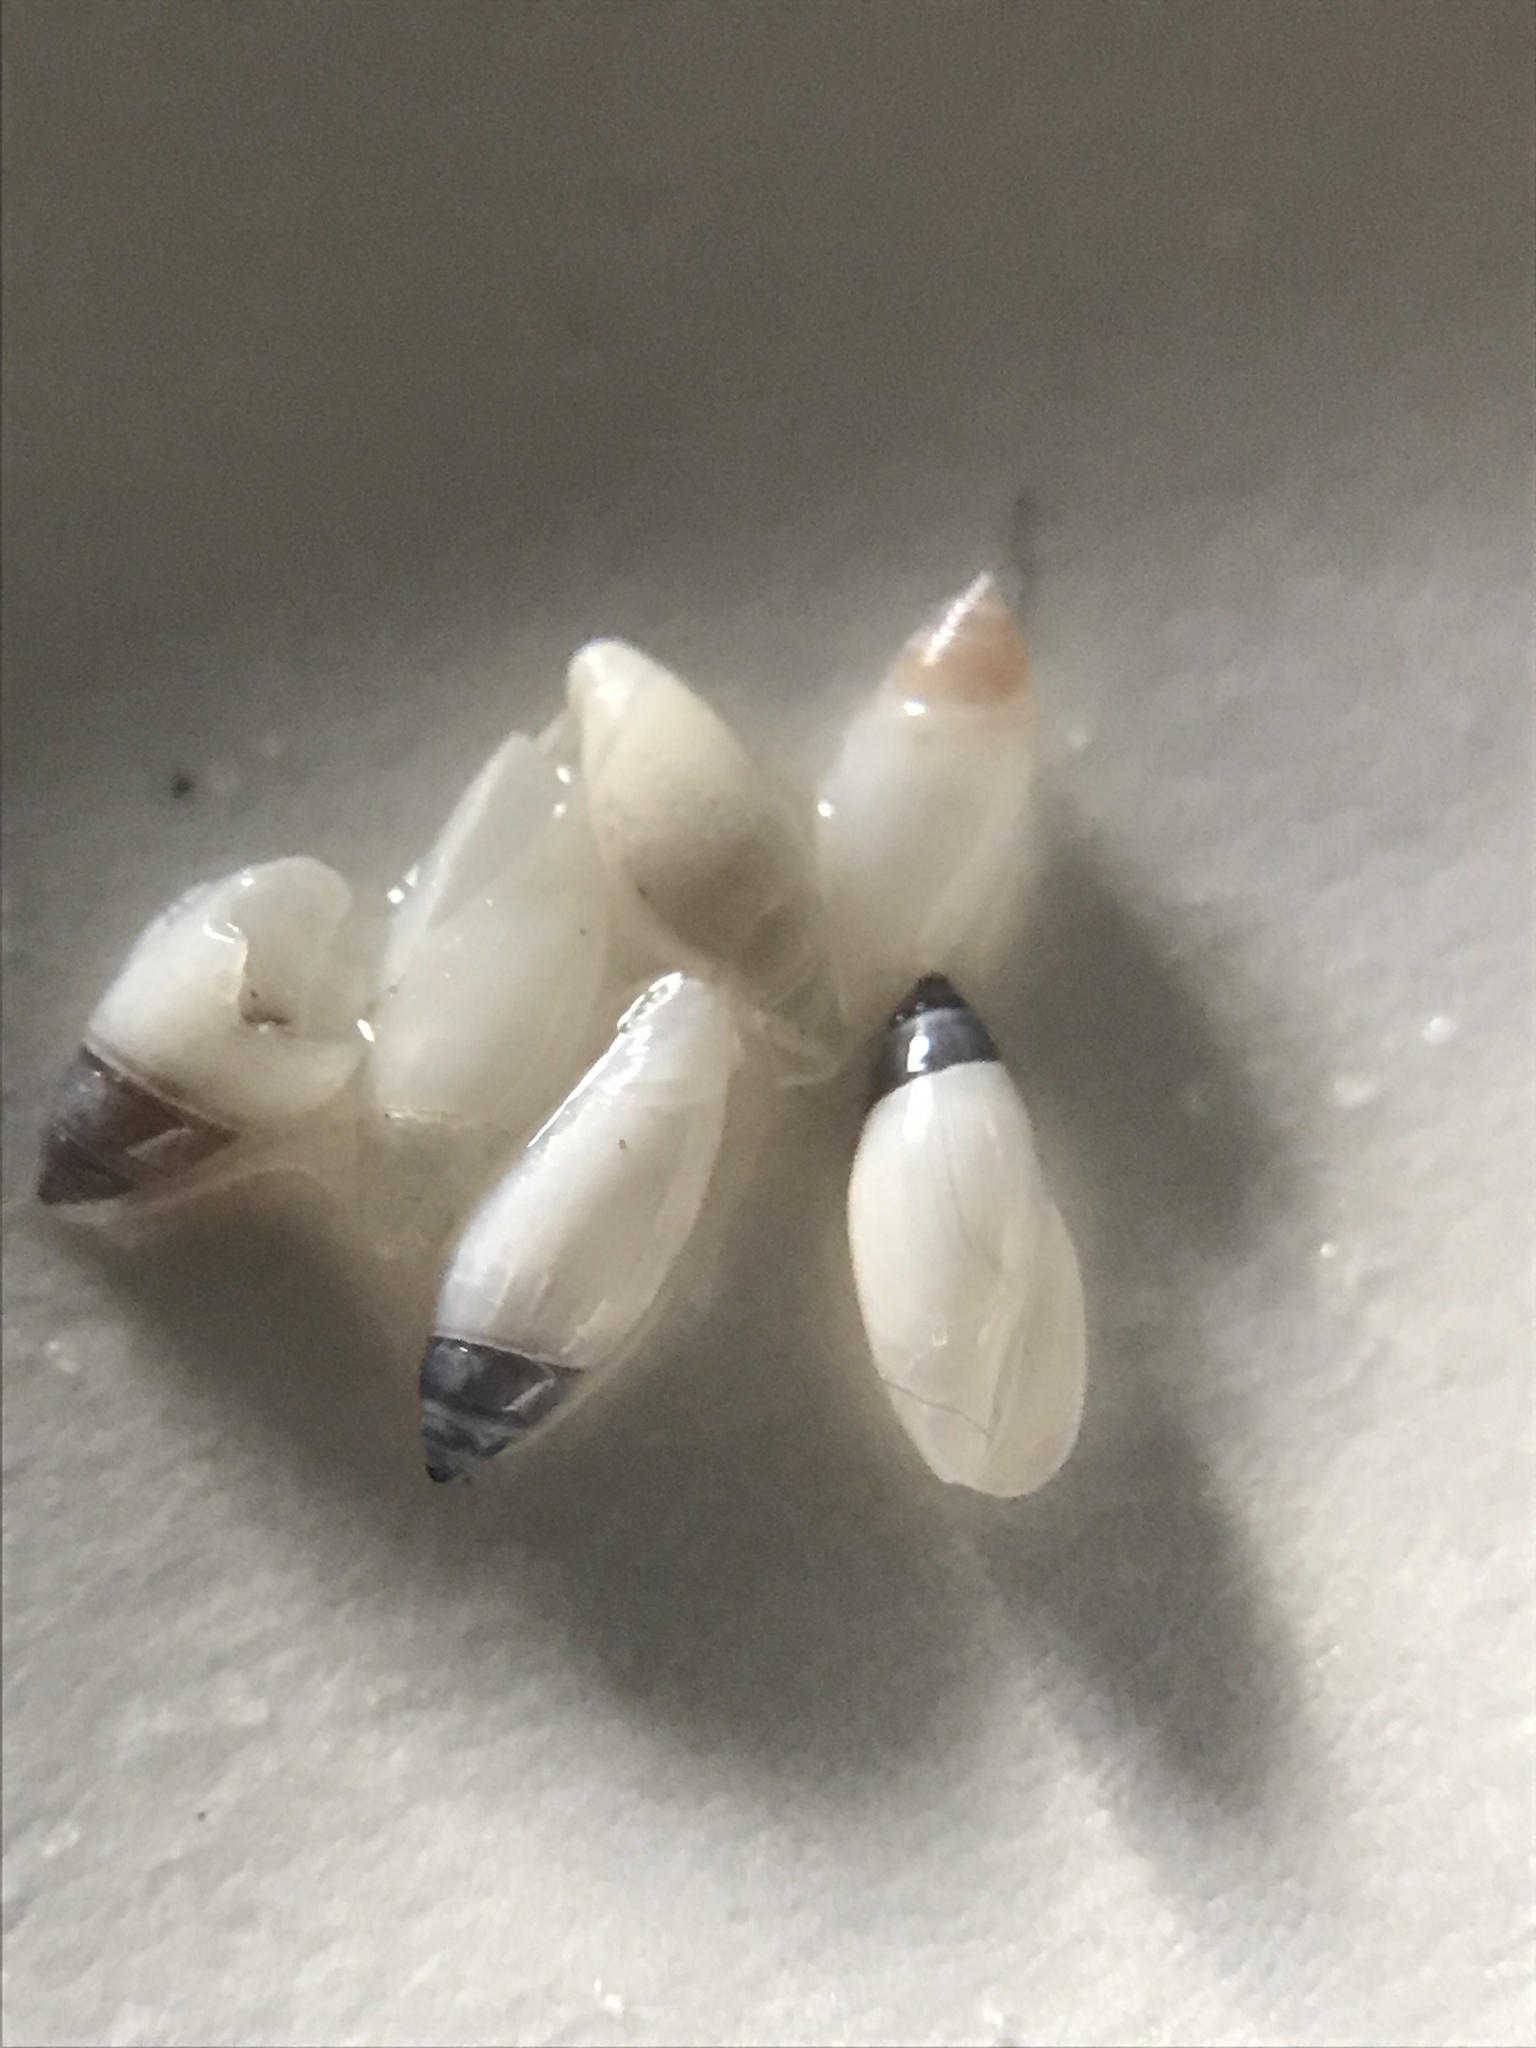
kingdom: Animalia
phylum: Mollusca
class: Gastropoda
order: Neogastropoda
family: Olividae
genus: Olivella
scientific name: Olivella pusilla
